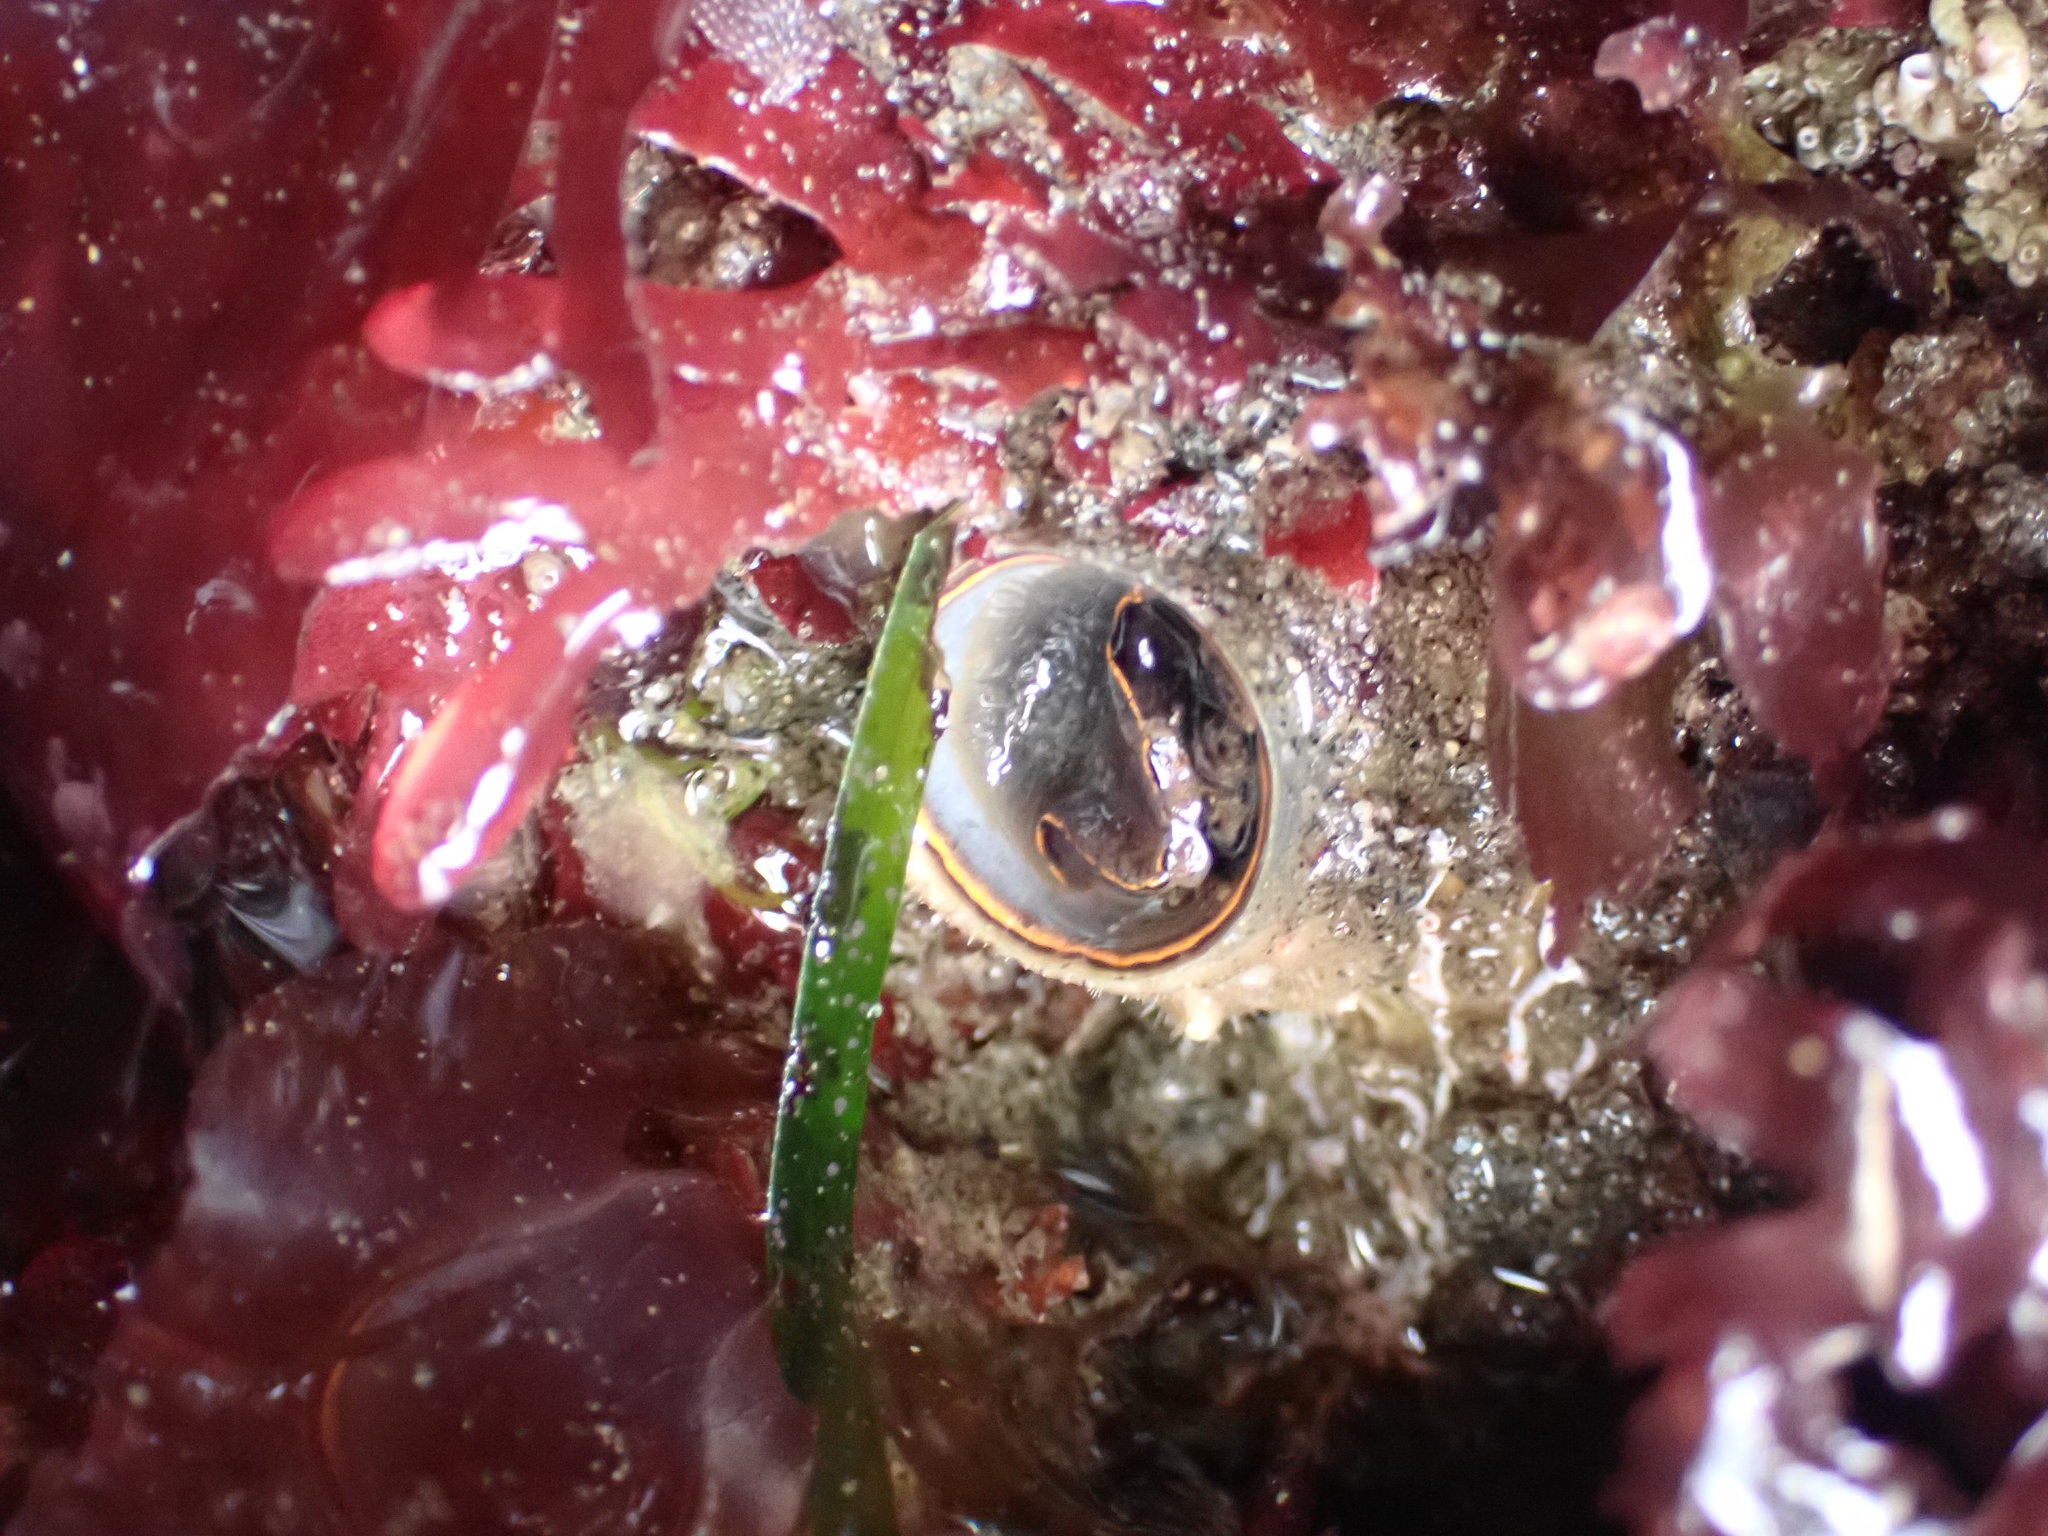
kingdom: Animalia
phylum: Mollusca
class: Gastropoda
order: Littorinimorpha
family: Vermetidae
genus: Thylacodes
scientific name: Thylacodes squamigerus
